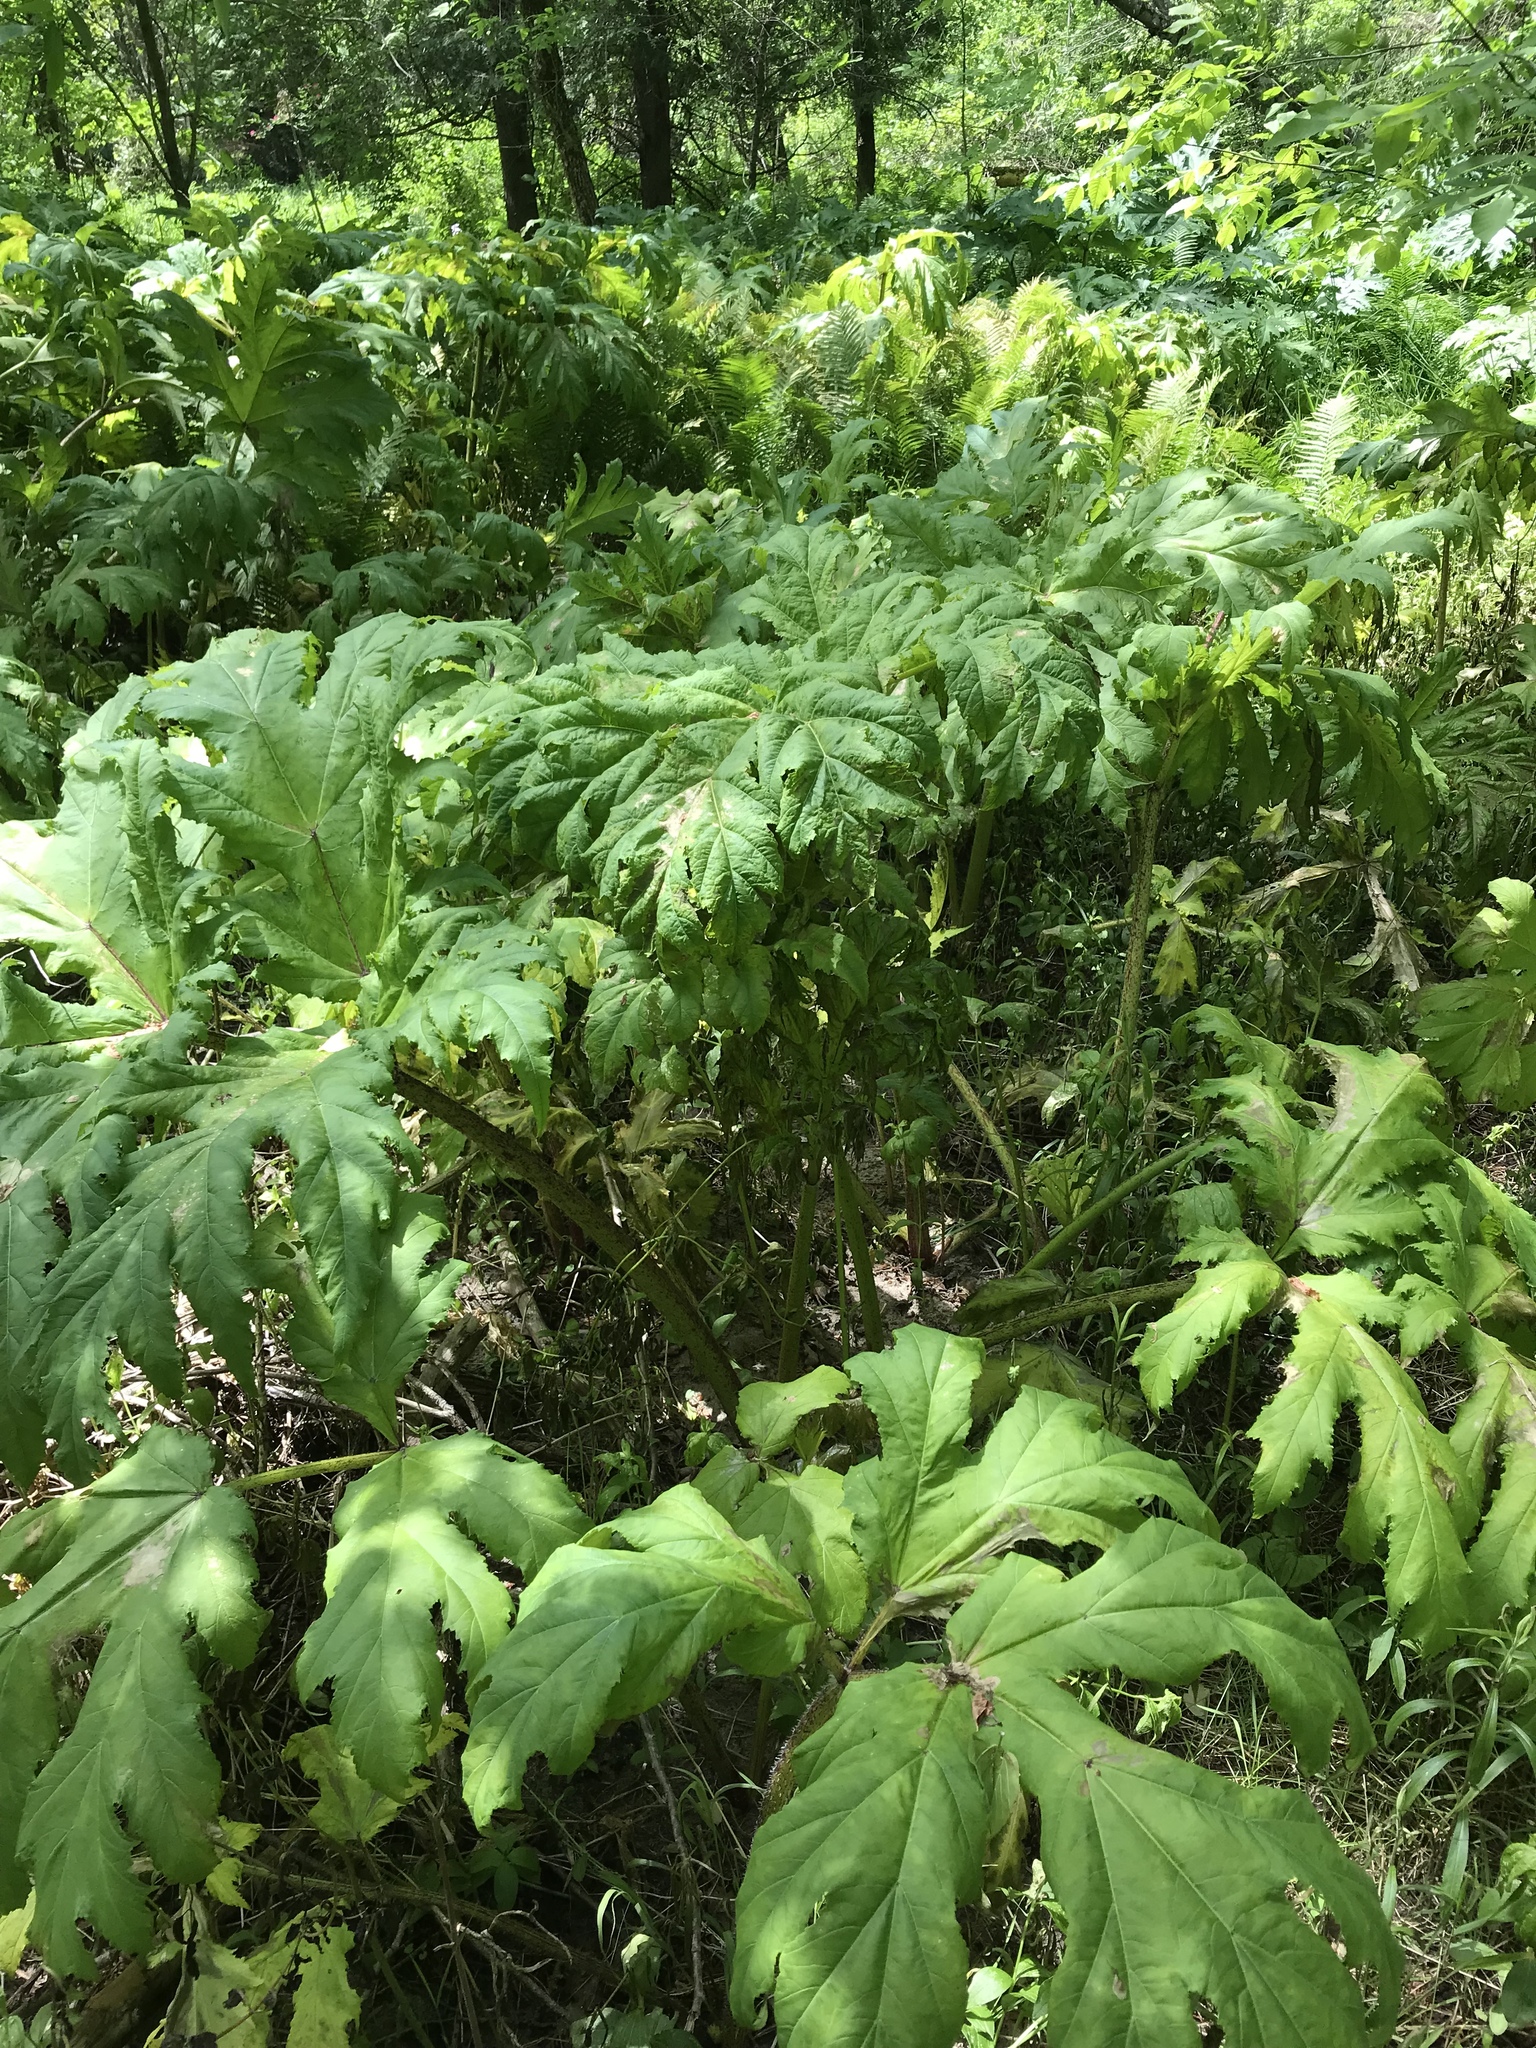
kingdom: Plantae
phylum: Tracheophyta
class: Magnoliopsida
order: Apiales
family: Apiaceae
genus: Heracleum
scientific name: Heracleum mantegazzianum
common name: Giant hogweed
